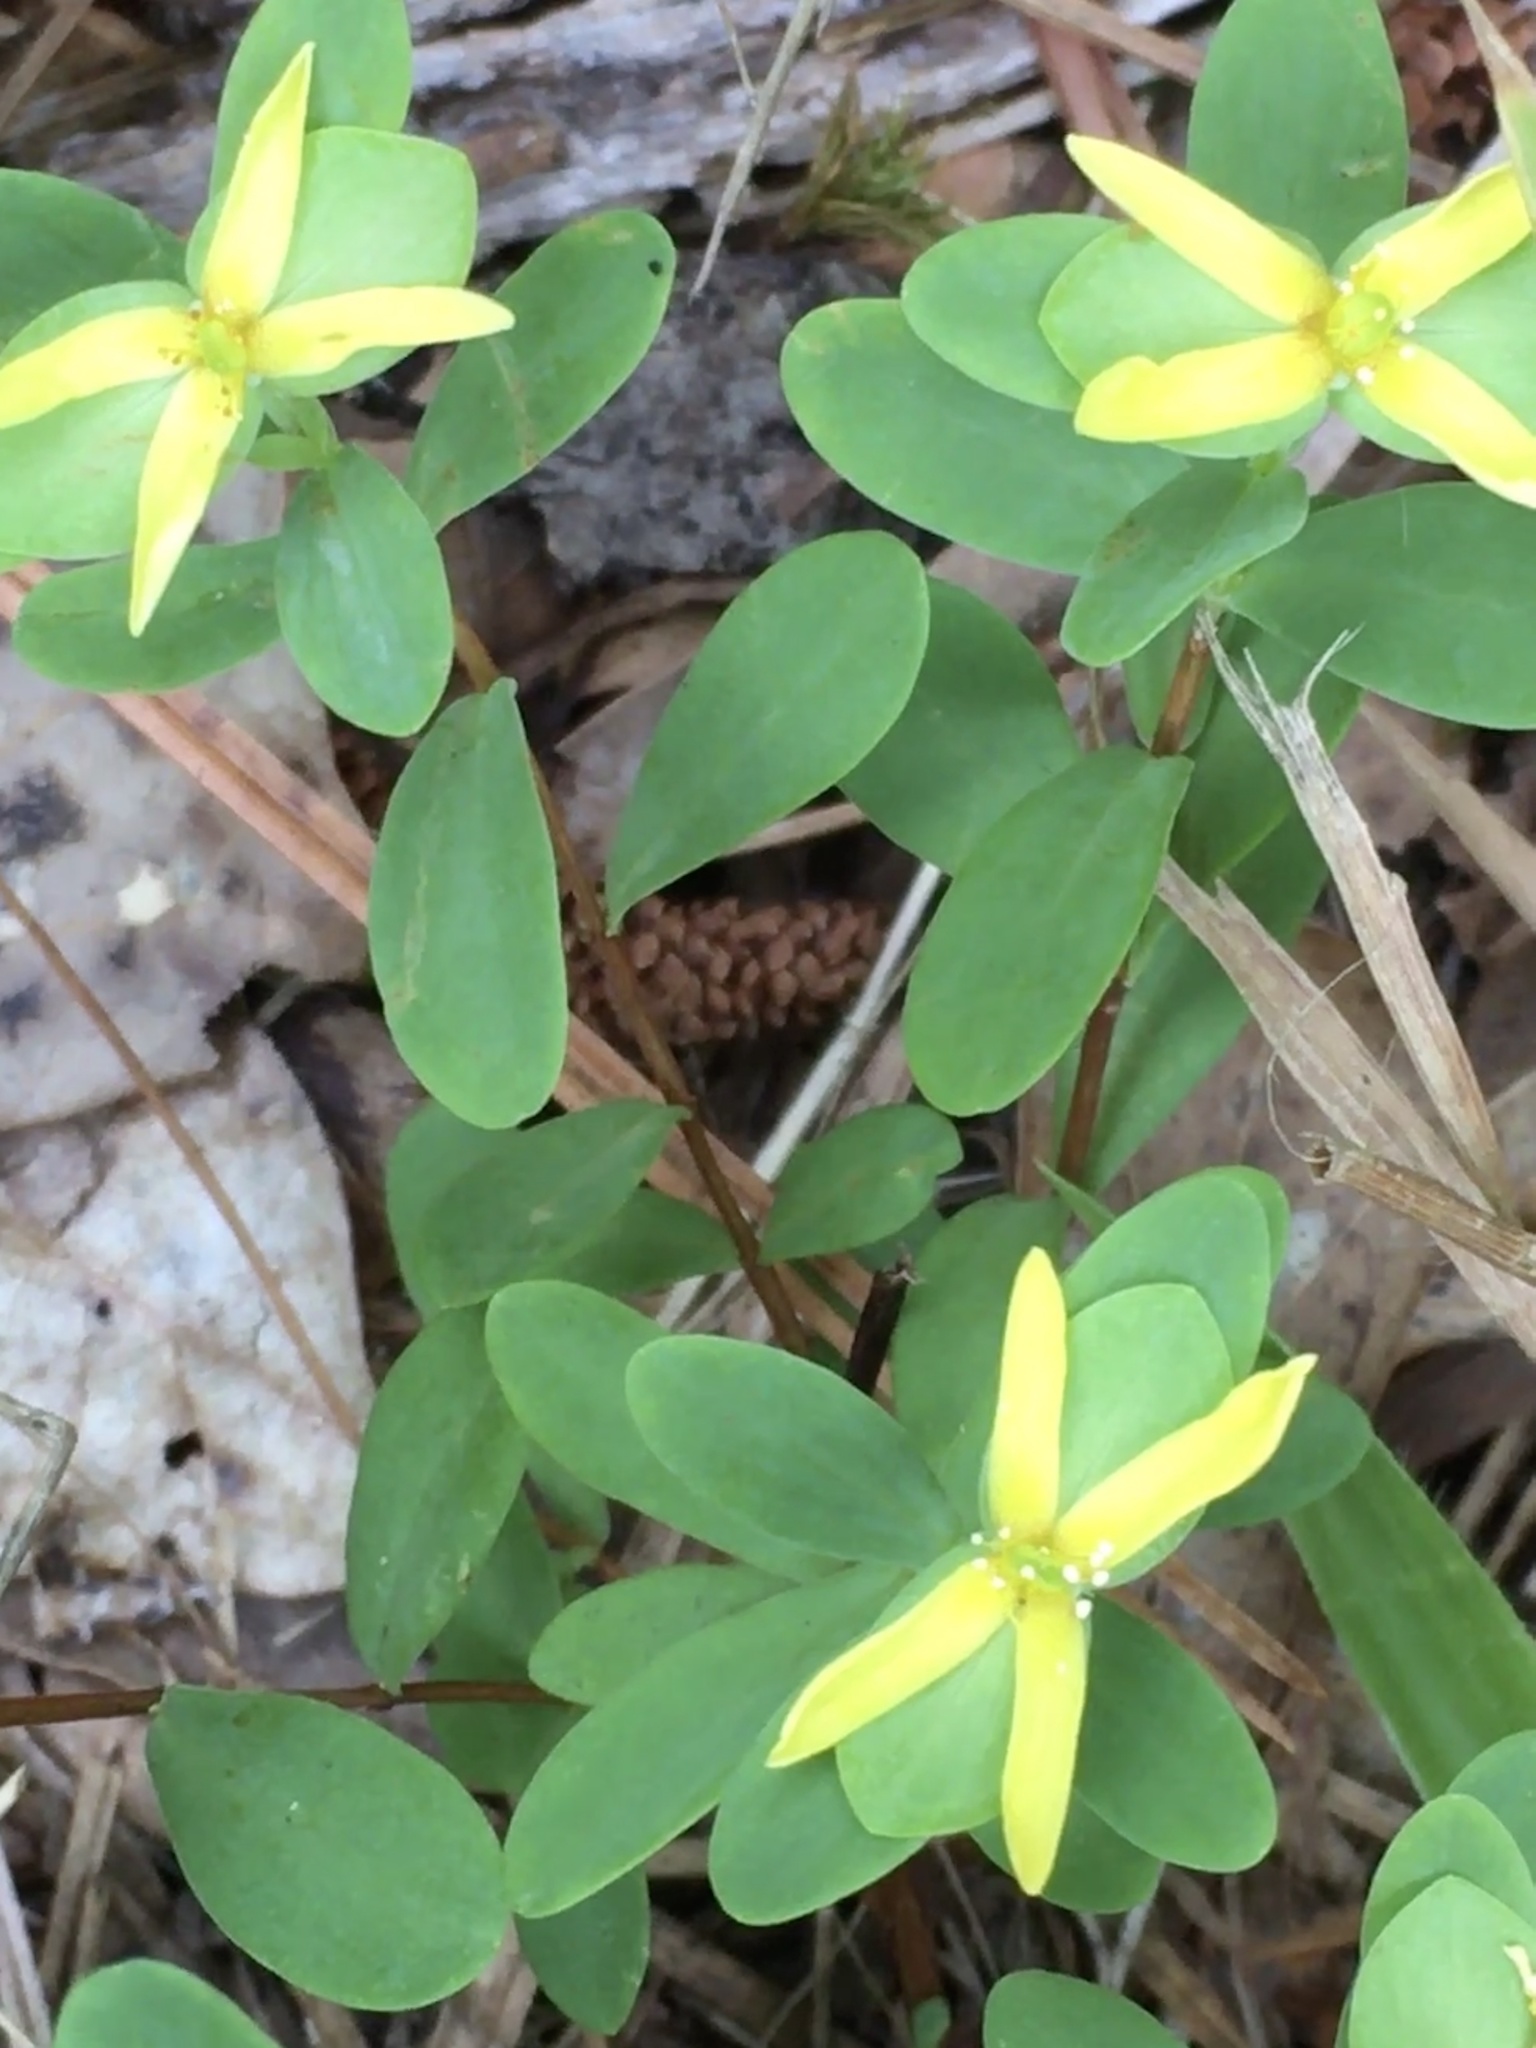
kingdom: Plantae
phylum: Tracheophyta
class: Magnoliopsida
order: Malpighiales
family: Hypericaceae
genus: Hypericum
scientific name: Hypericum hypericoides
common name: St. andrew's cross
